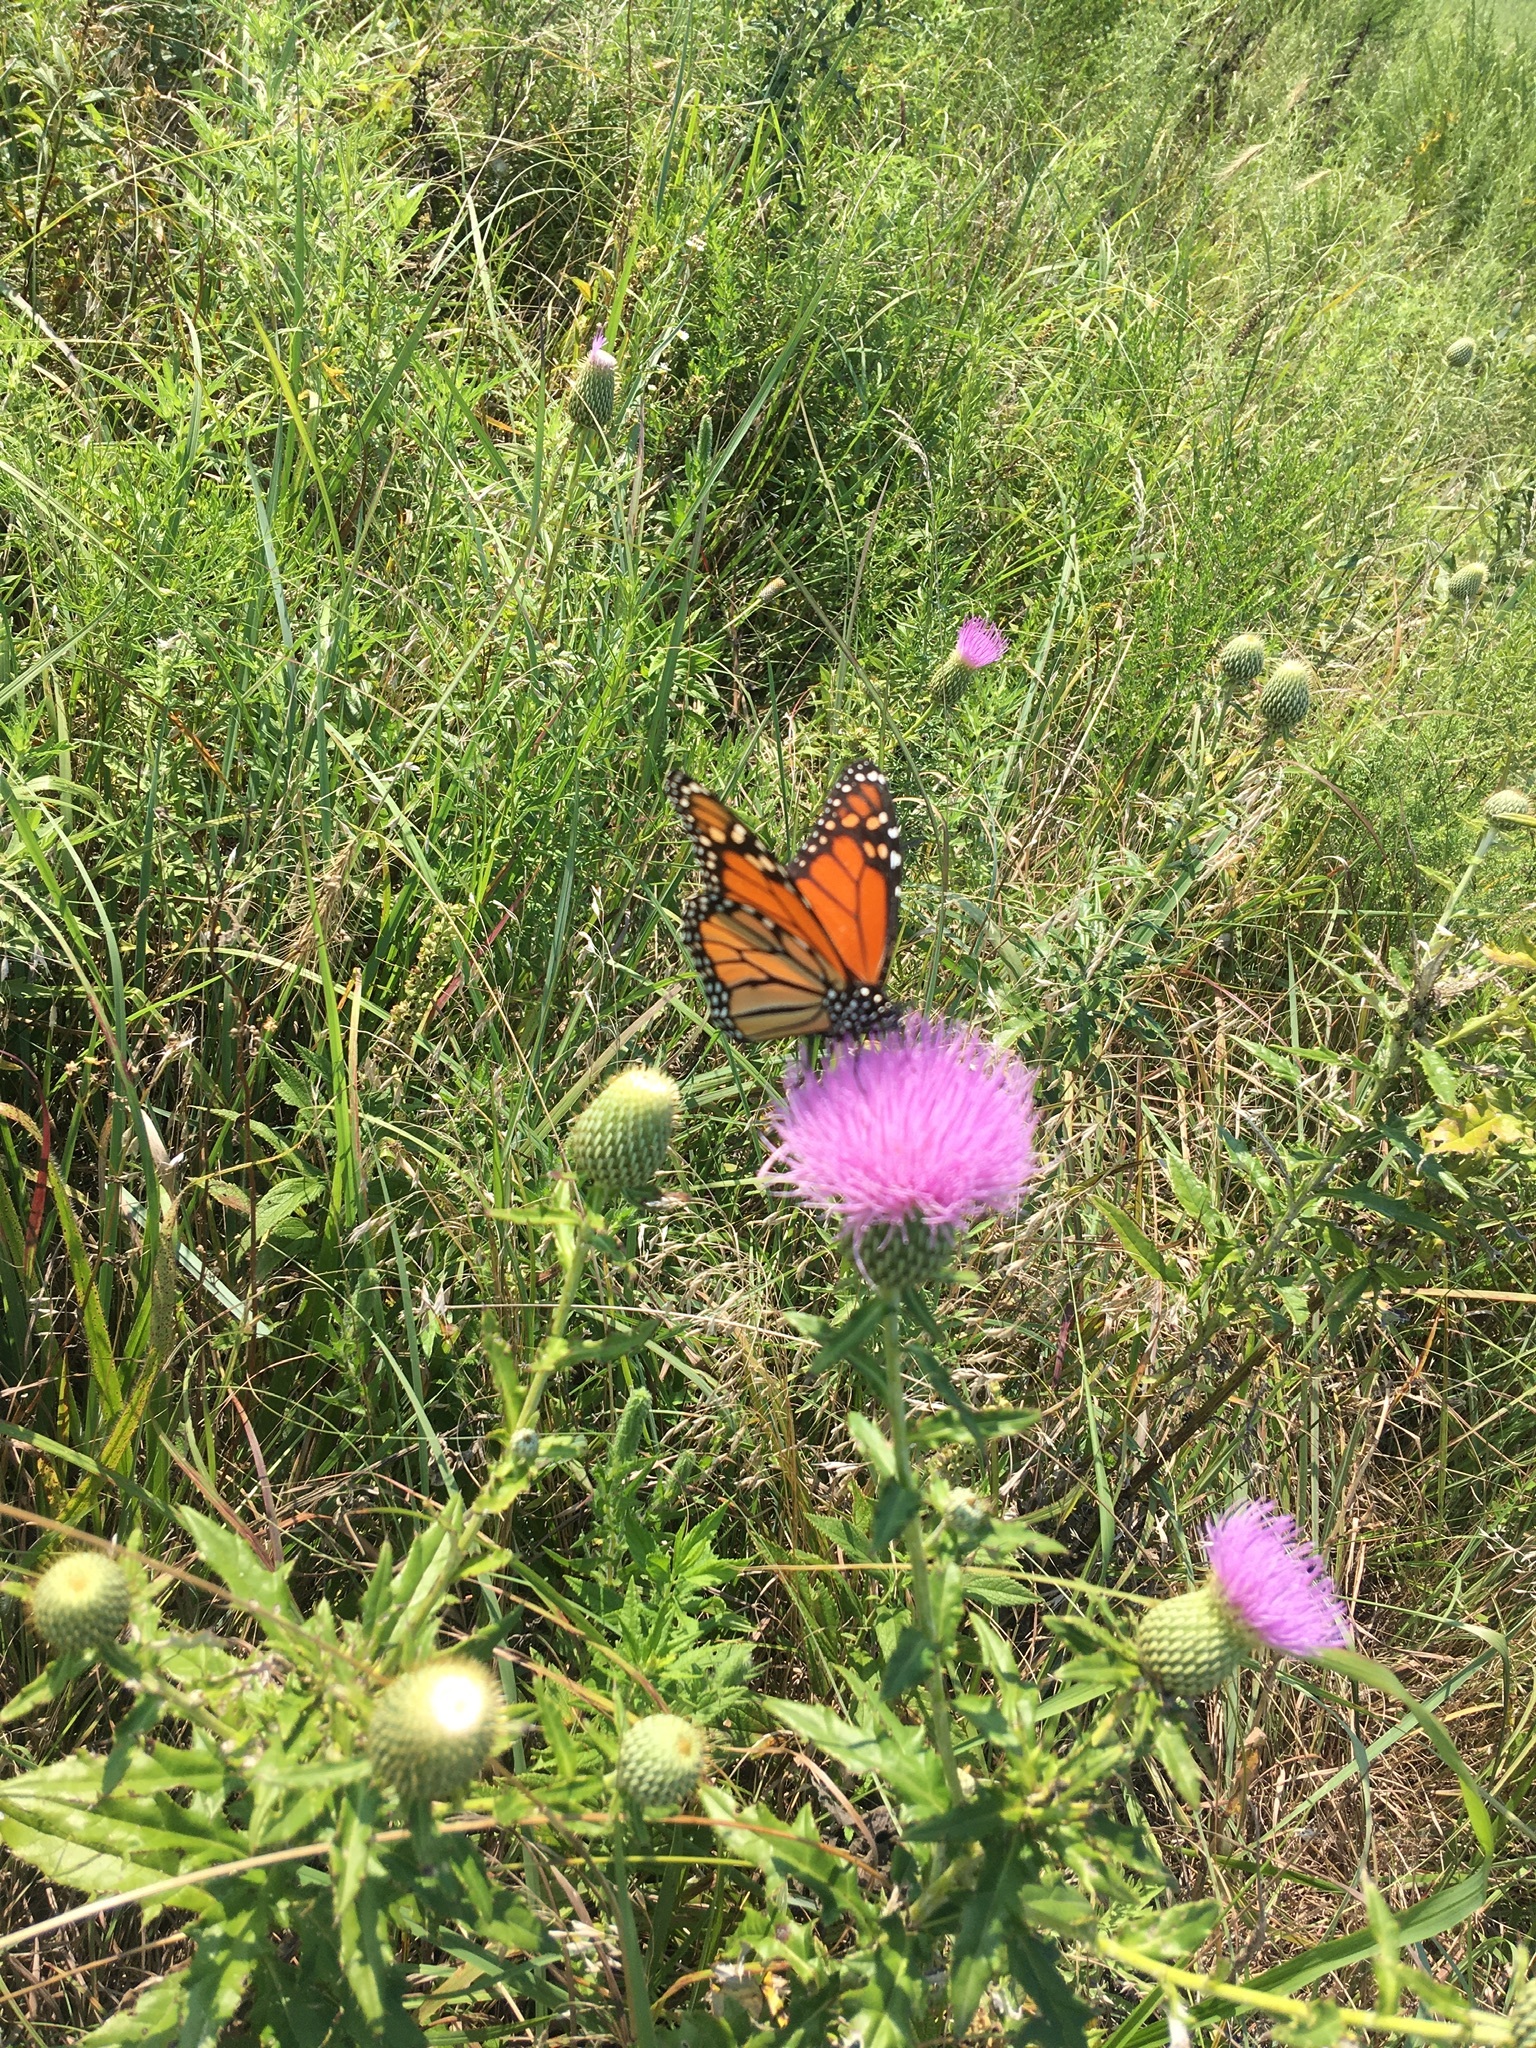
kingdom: Animalia
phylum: Arthropoda
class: Insecta
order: Lepidoptera
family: Nymphalidae
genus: Danaus
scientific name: Danaus plexippus
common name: Monarch
